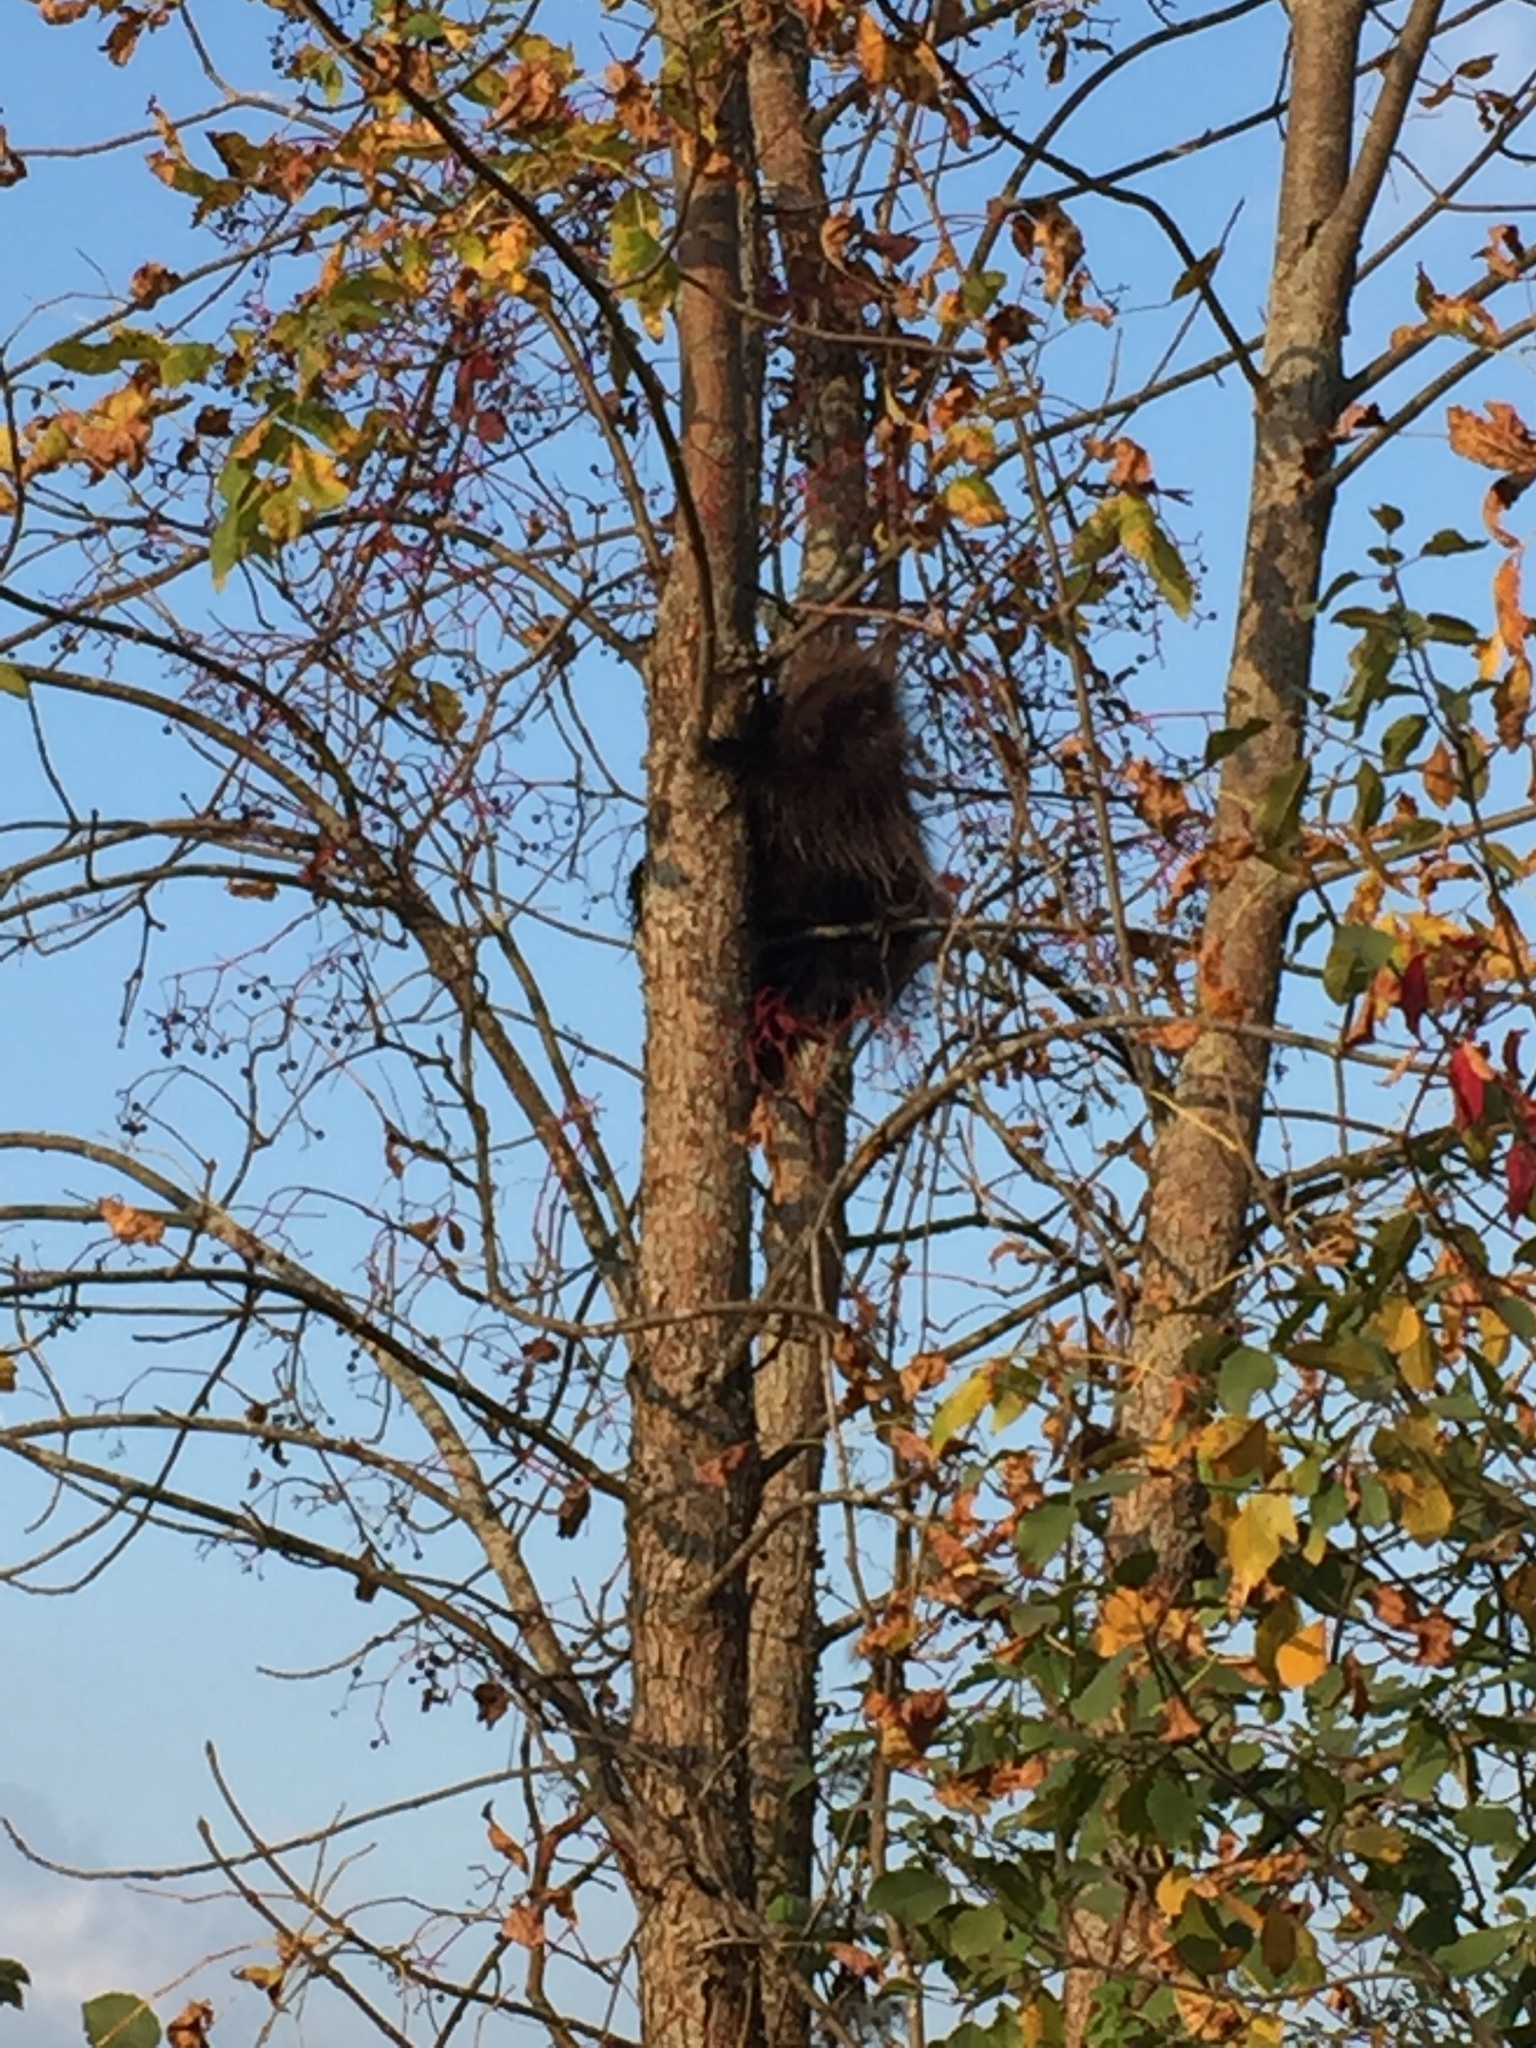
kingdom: Animalia
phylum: Chordata
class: Mammalia
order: Rodentia
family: Erethizontidae
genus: Erethizon
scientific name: Erethizon dorsatus
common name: North american porcupine
